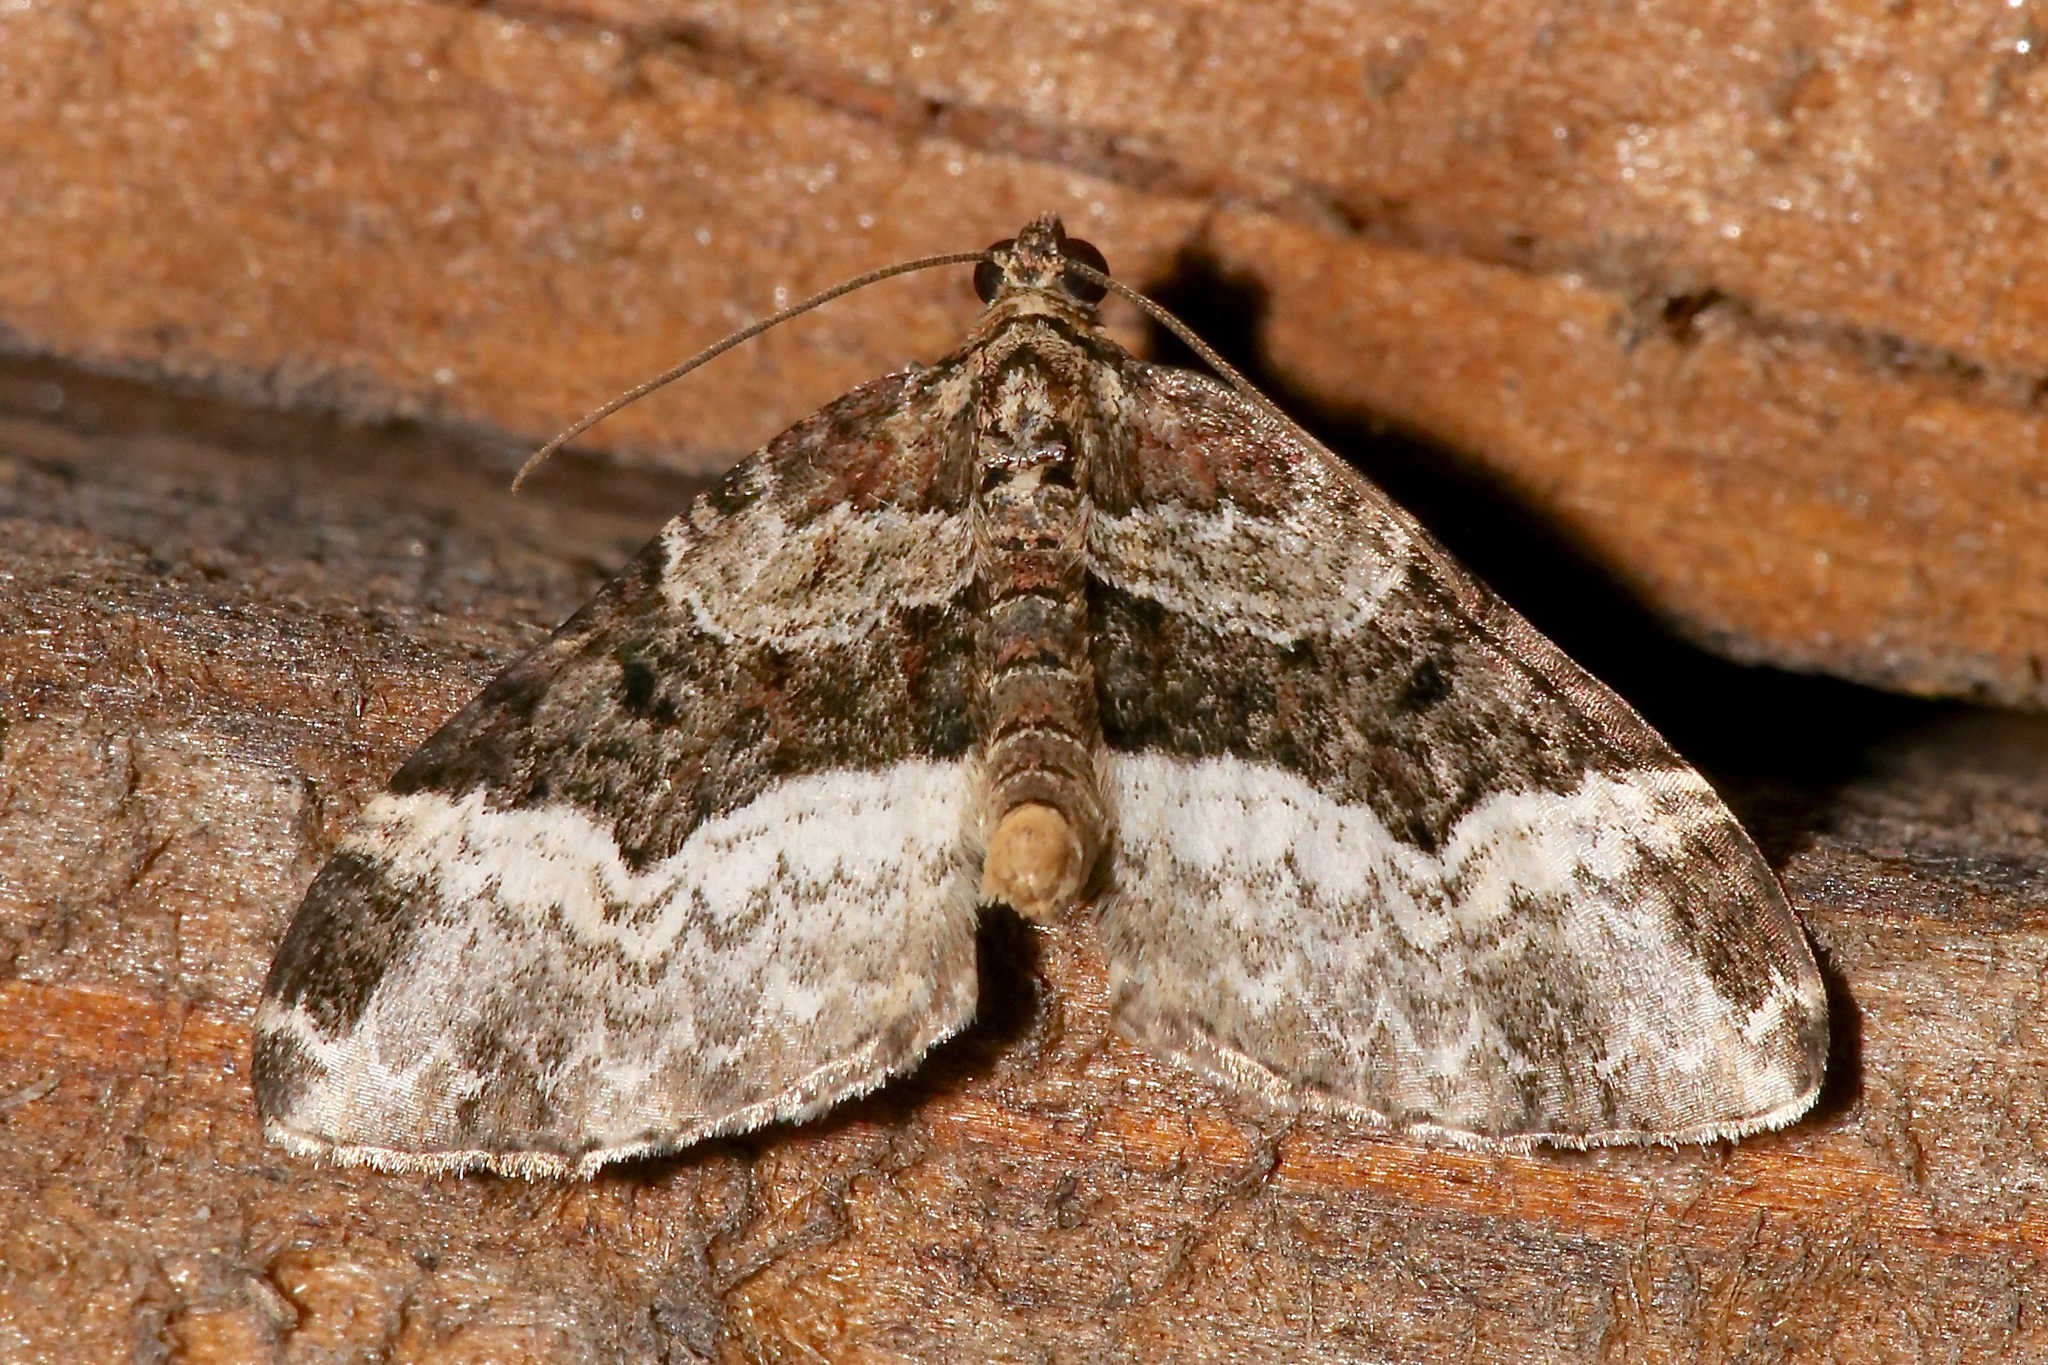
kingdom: Animalia
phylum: Arthropoda
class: Insecta
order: Lepidoptera
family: Geometridae
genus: Euphyia
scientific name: Euphyia intermediata
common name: Sharp-angled carpet
